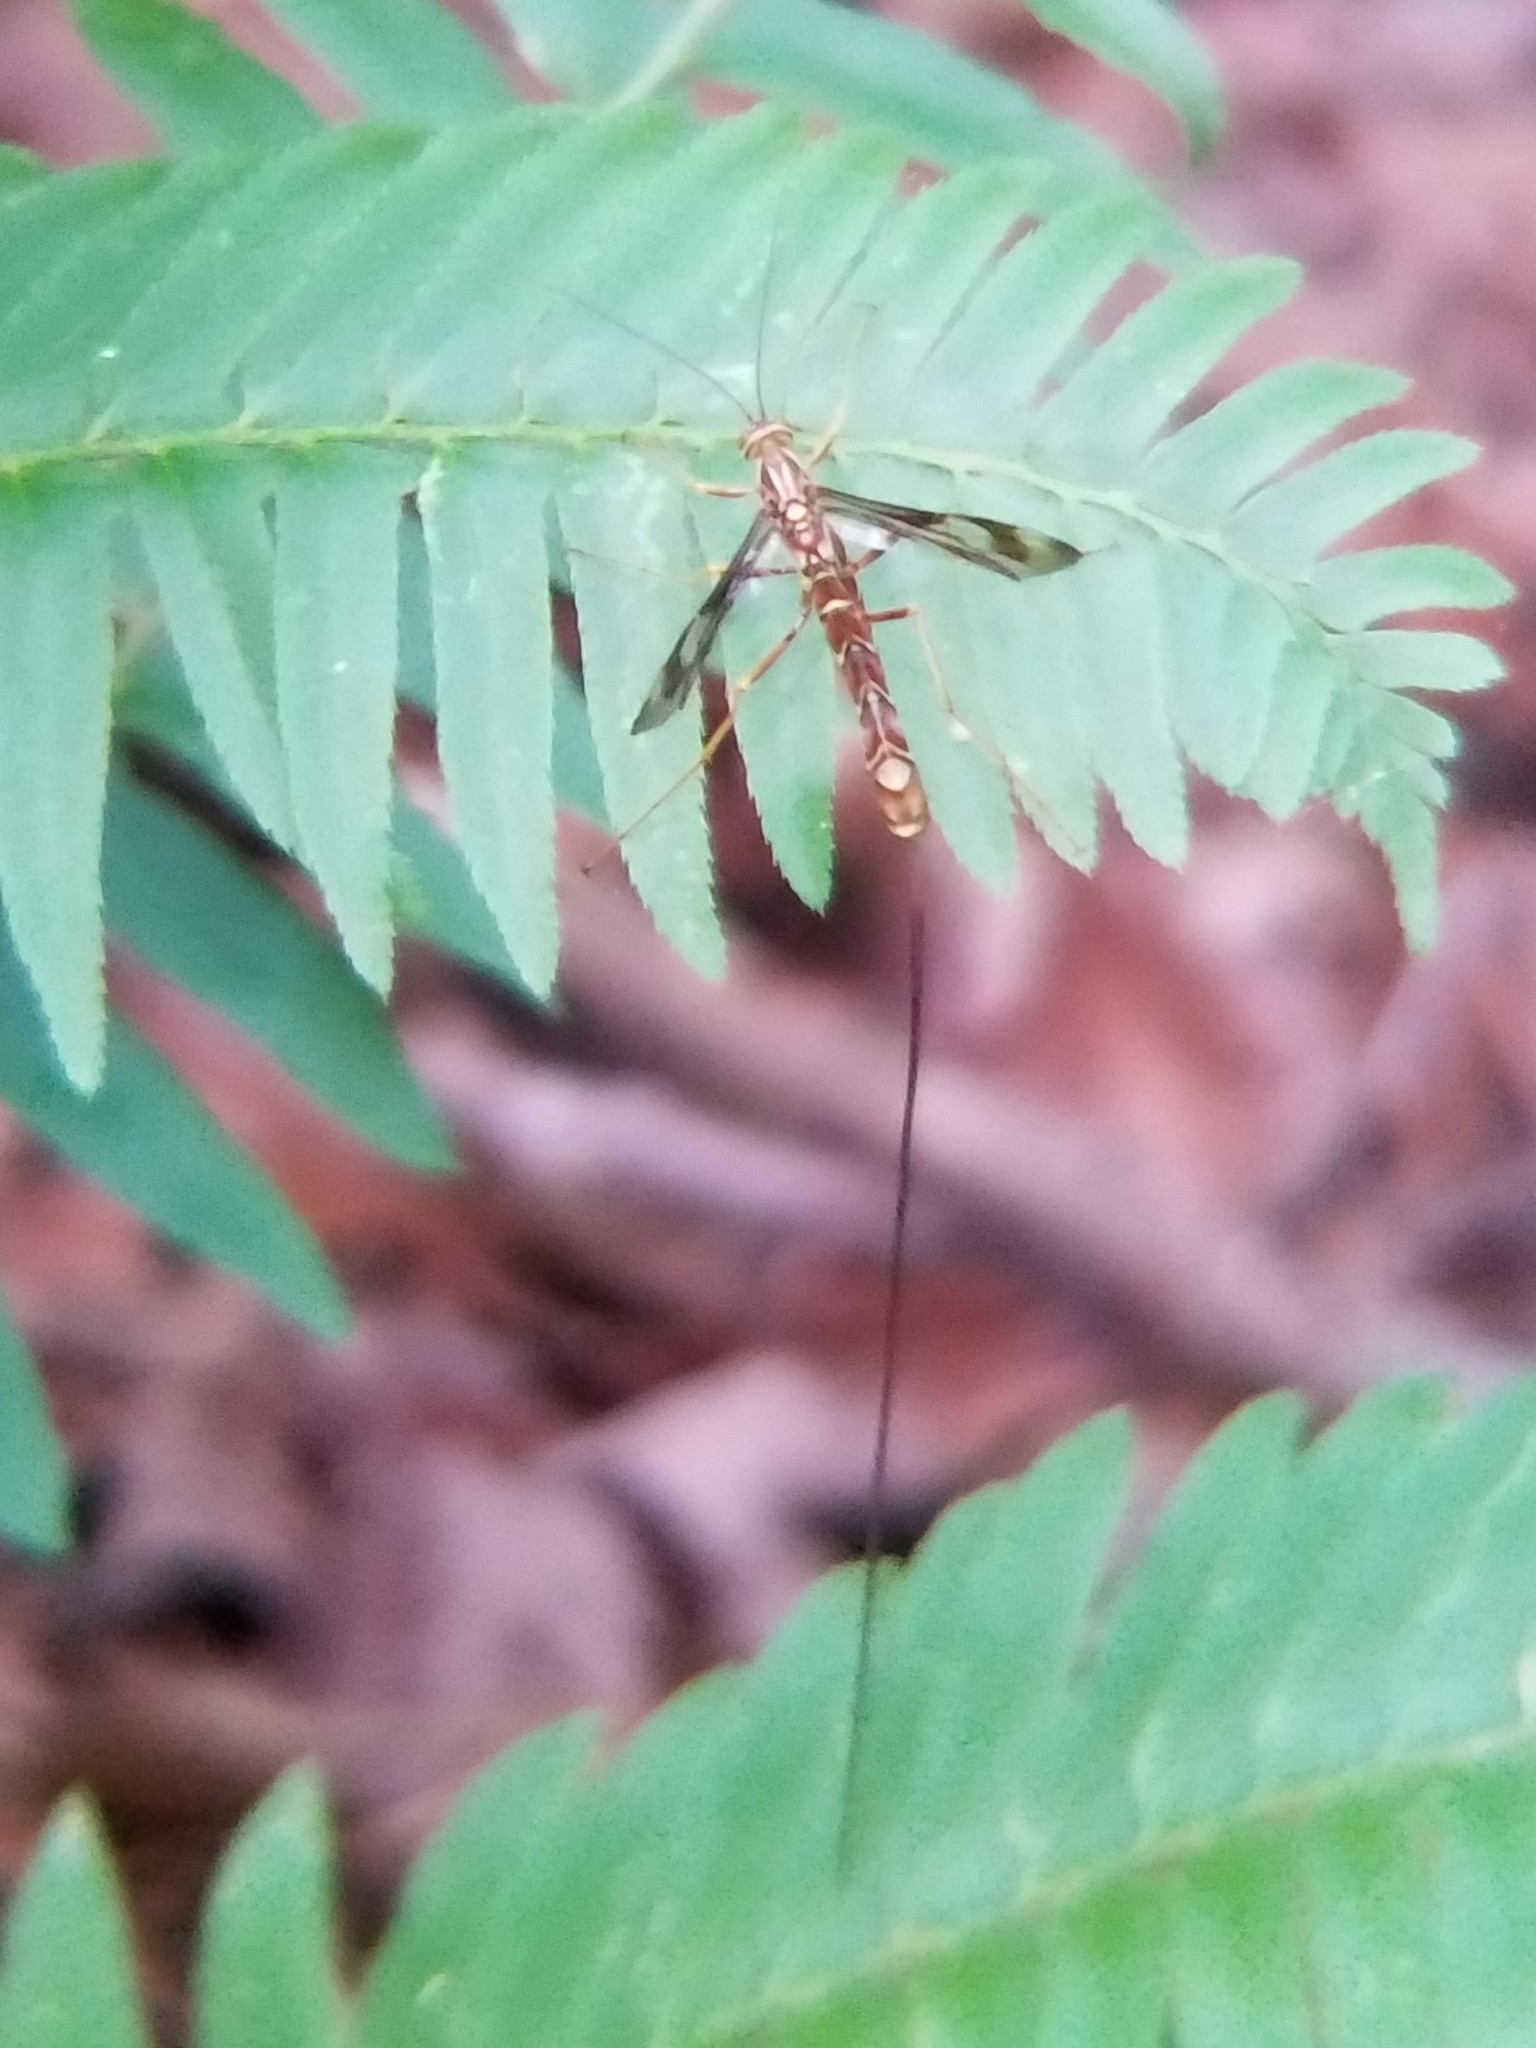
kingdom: Animalia
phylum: Arthropoda
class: Insecta
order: Hymenoptera
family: Ichneumonidae
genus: Megarhyssa
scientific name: Megarhyssa macrura
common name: Long-tailed giant ichneumonid wasp
